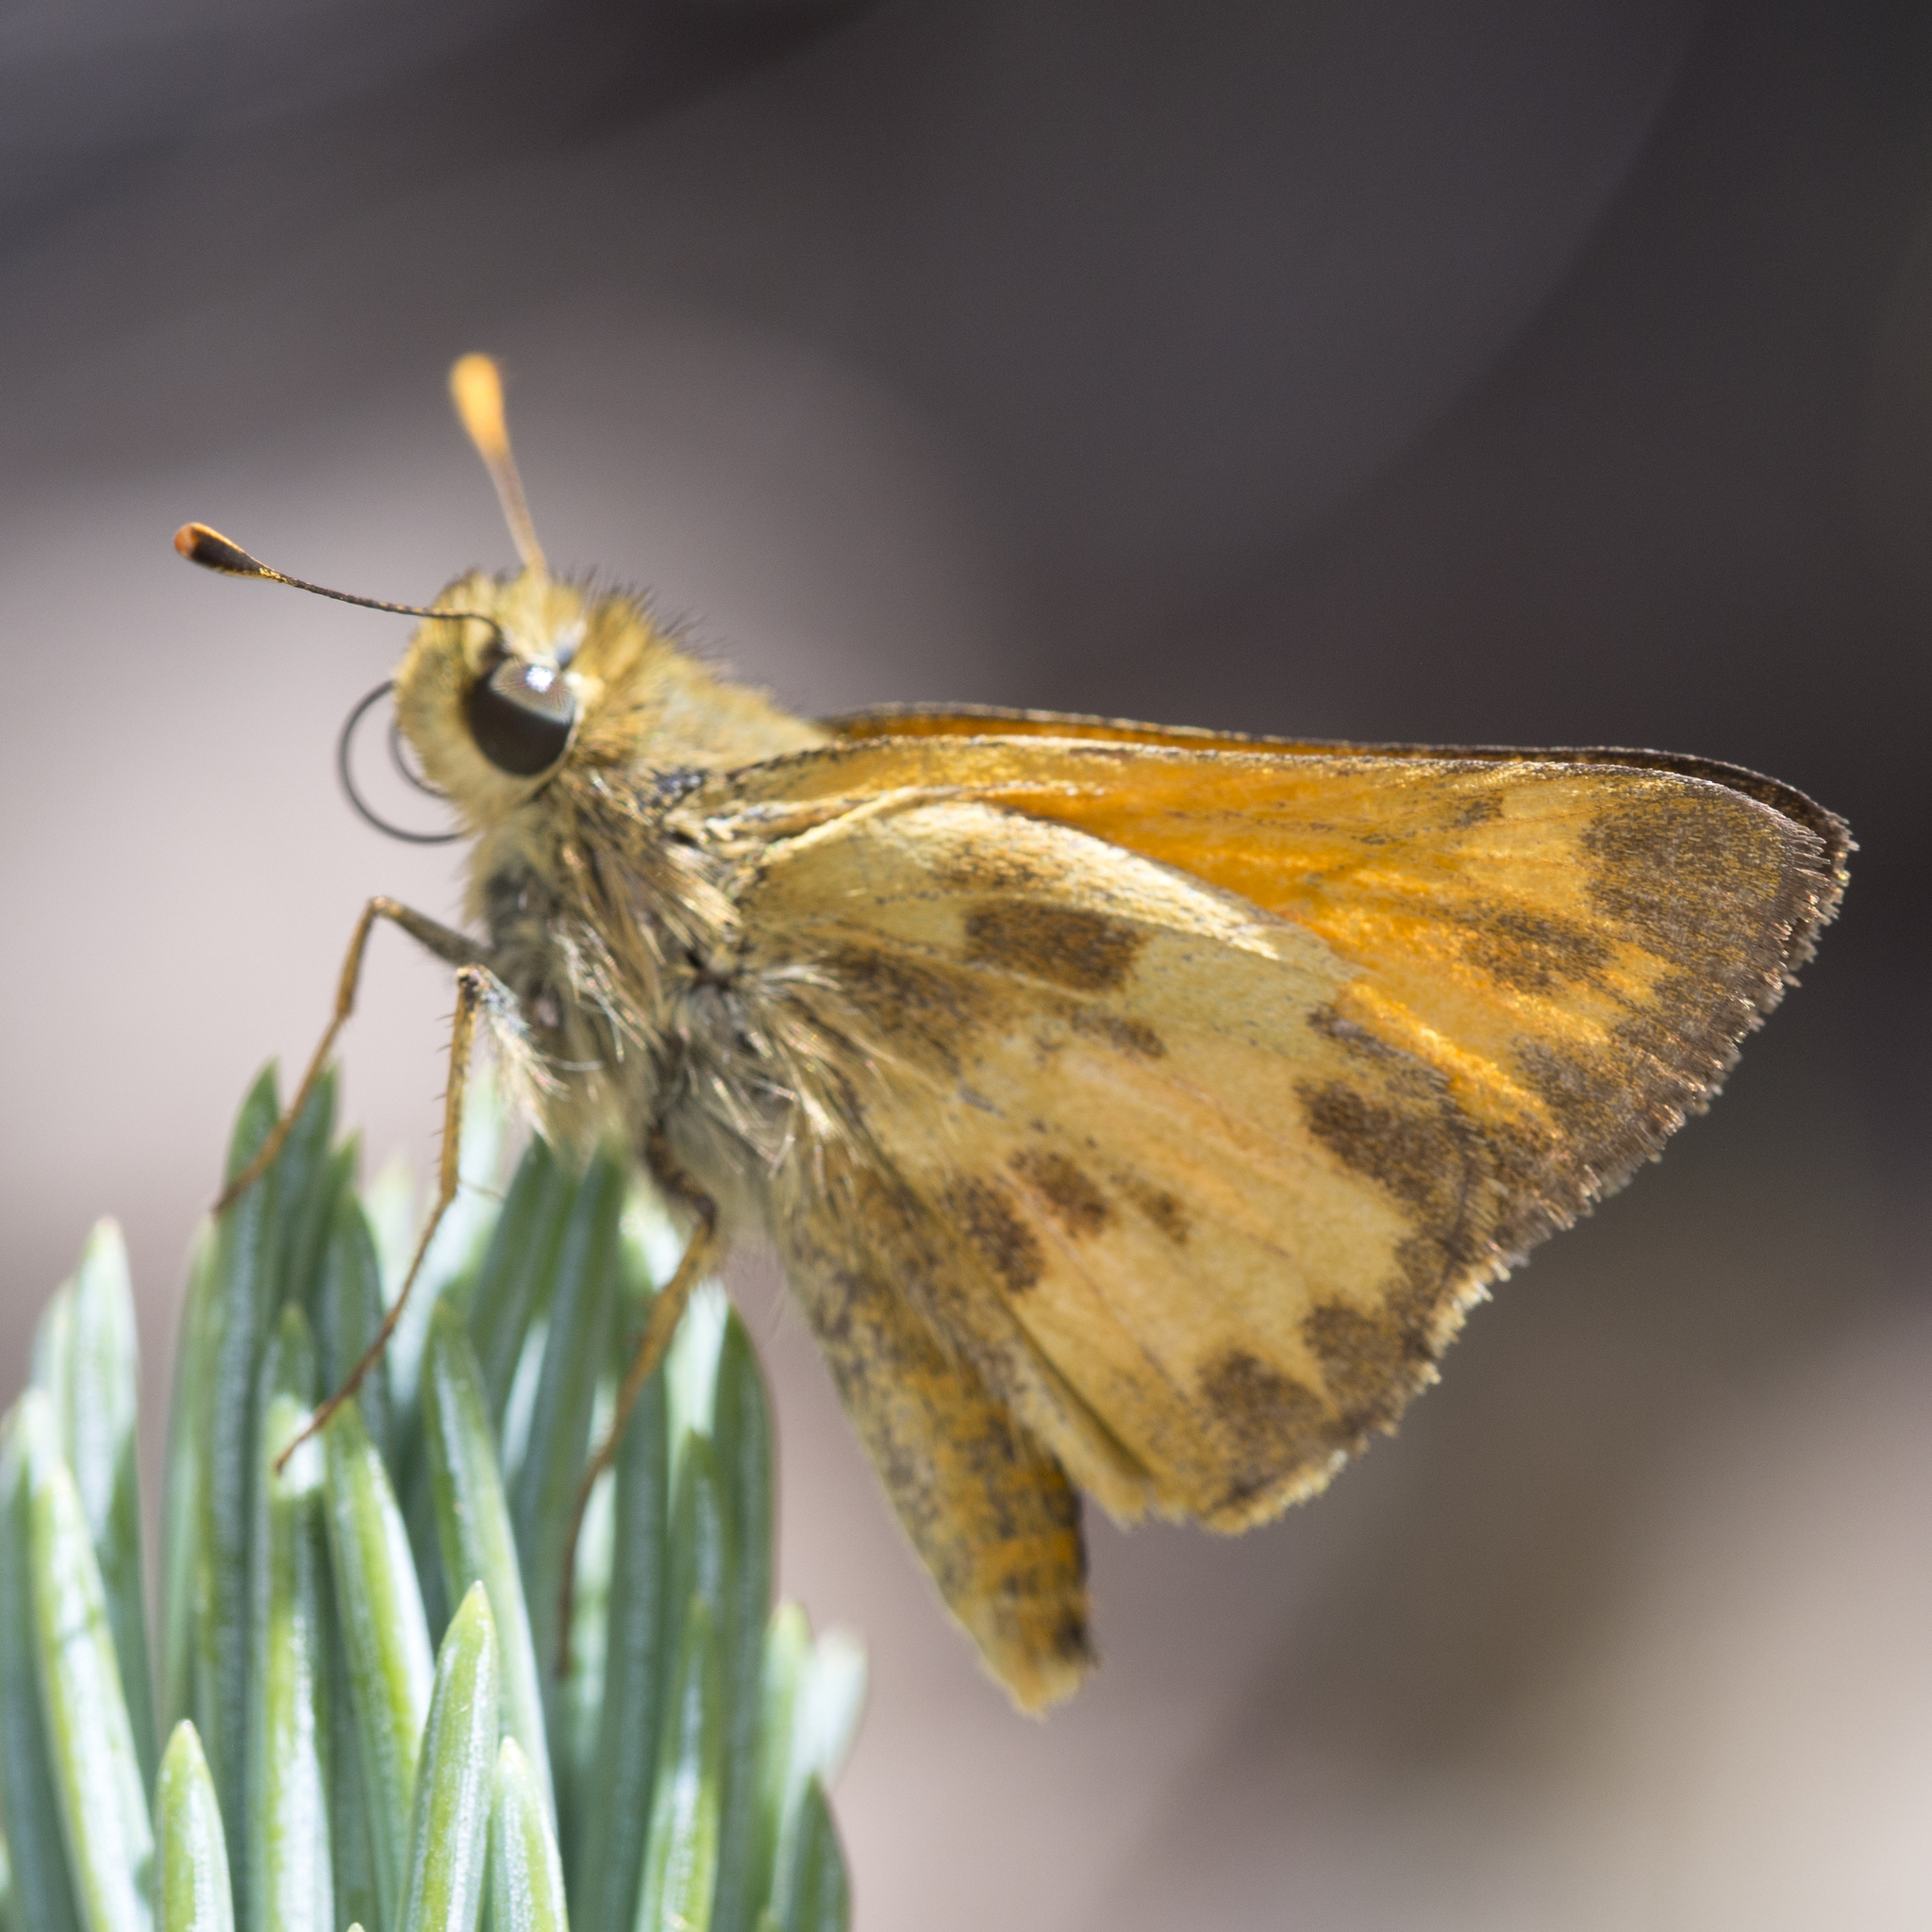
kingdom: Animalia
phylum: Arthropoda
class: Insecta
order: Lepidoptera
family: Hesperiidae
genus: Lon
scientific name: Lon taxiles
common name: Taxiles skipper
